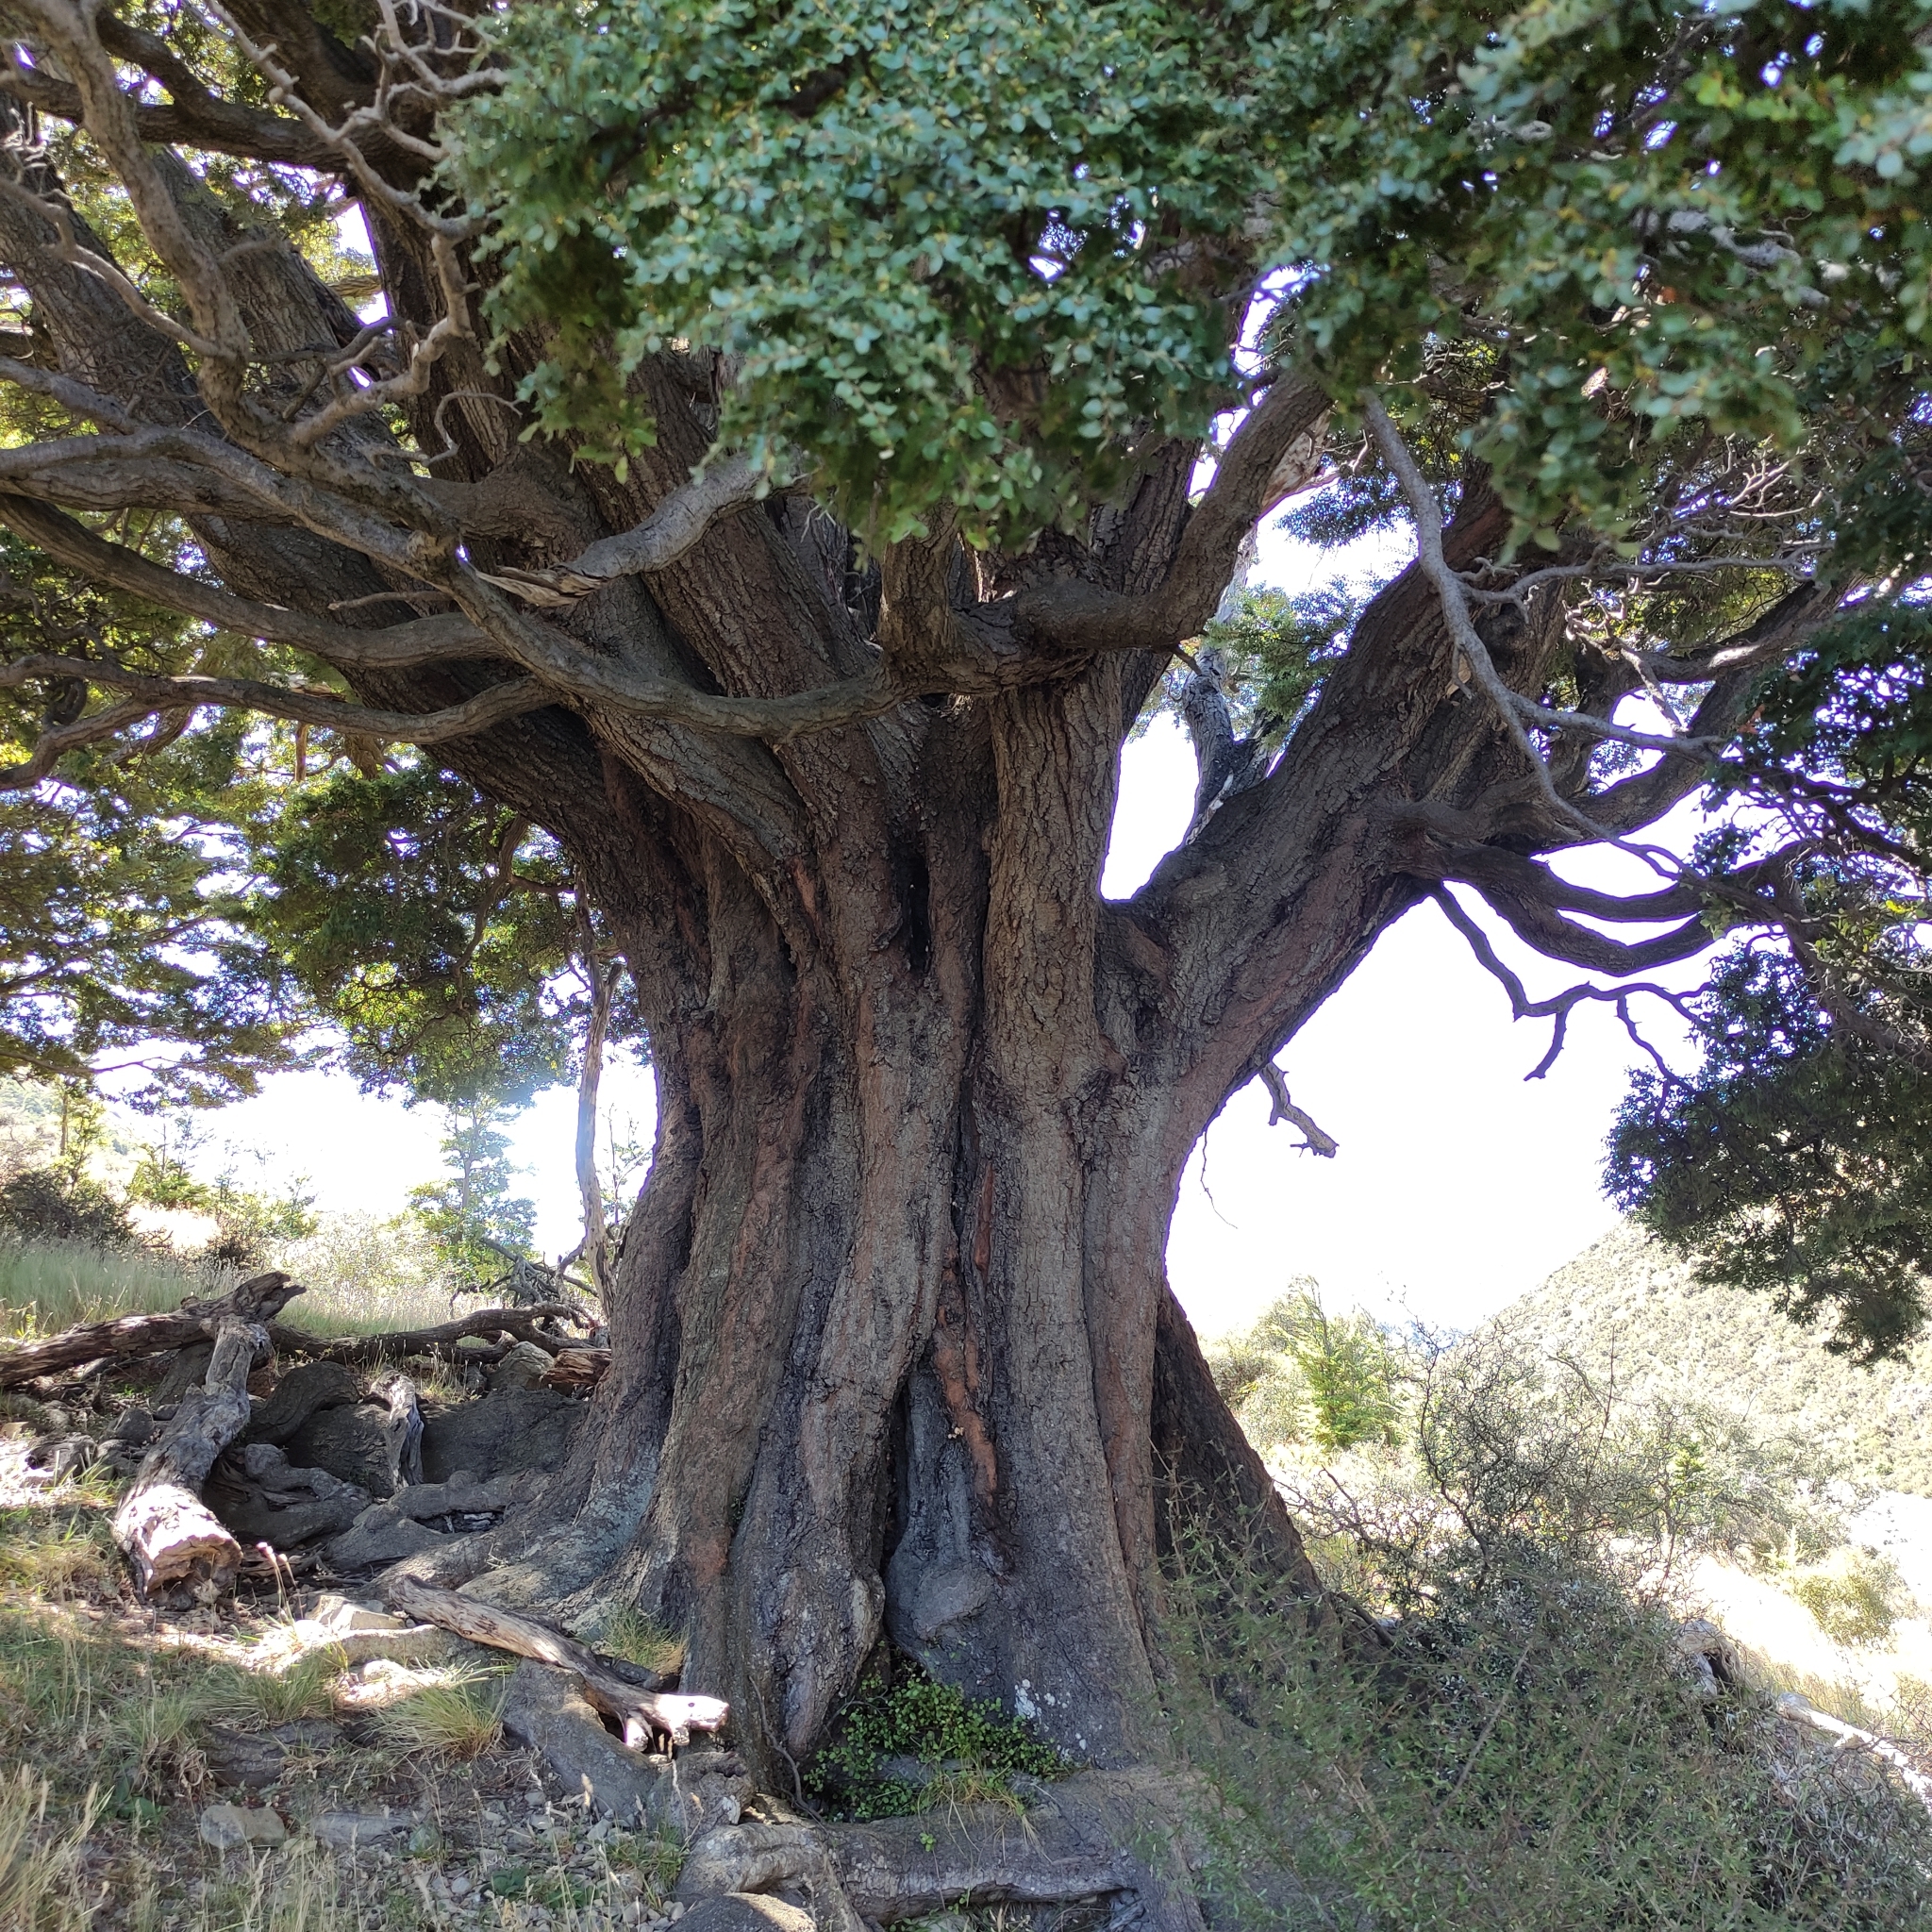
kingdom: Plantae
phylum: Tracheophyta
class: Magnoliopsida
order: Fagales
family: Nothofagaceae
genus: Nothofagus
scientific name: Nothofagus solandri
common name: Black beech
